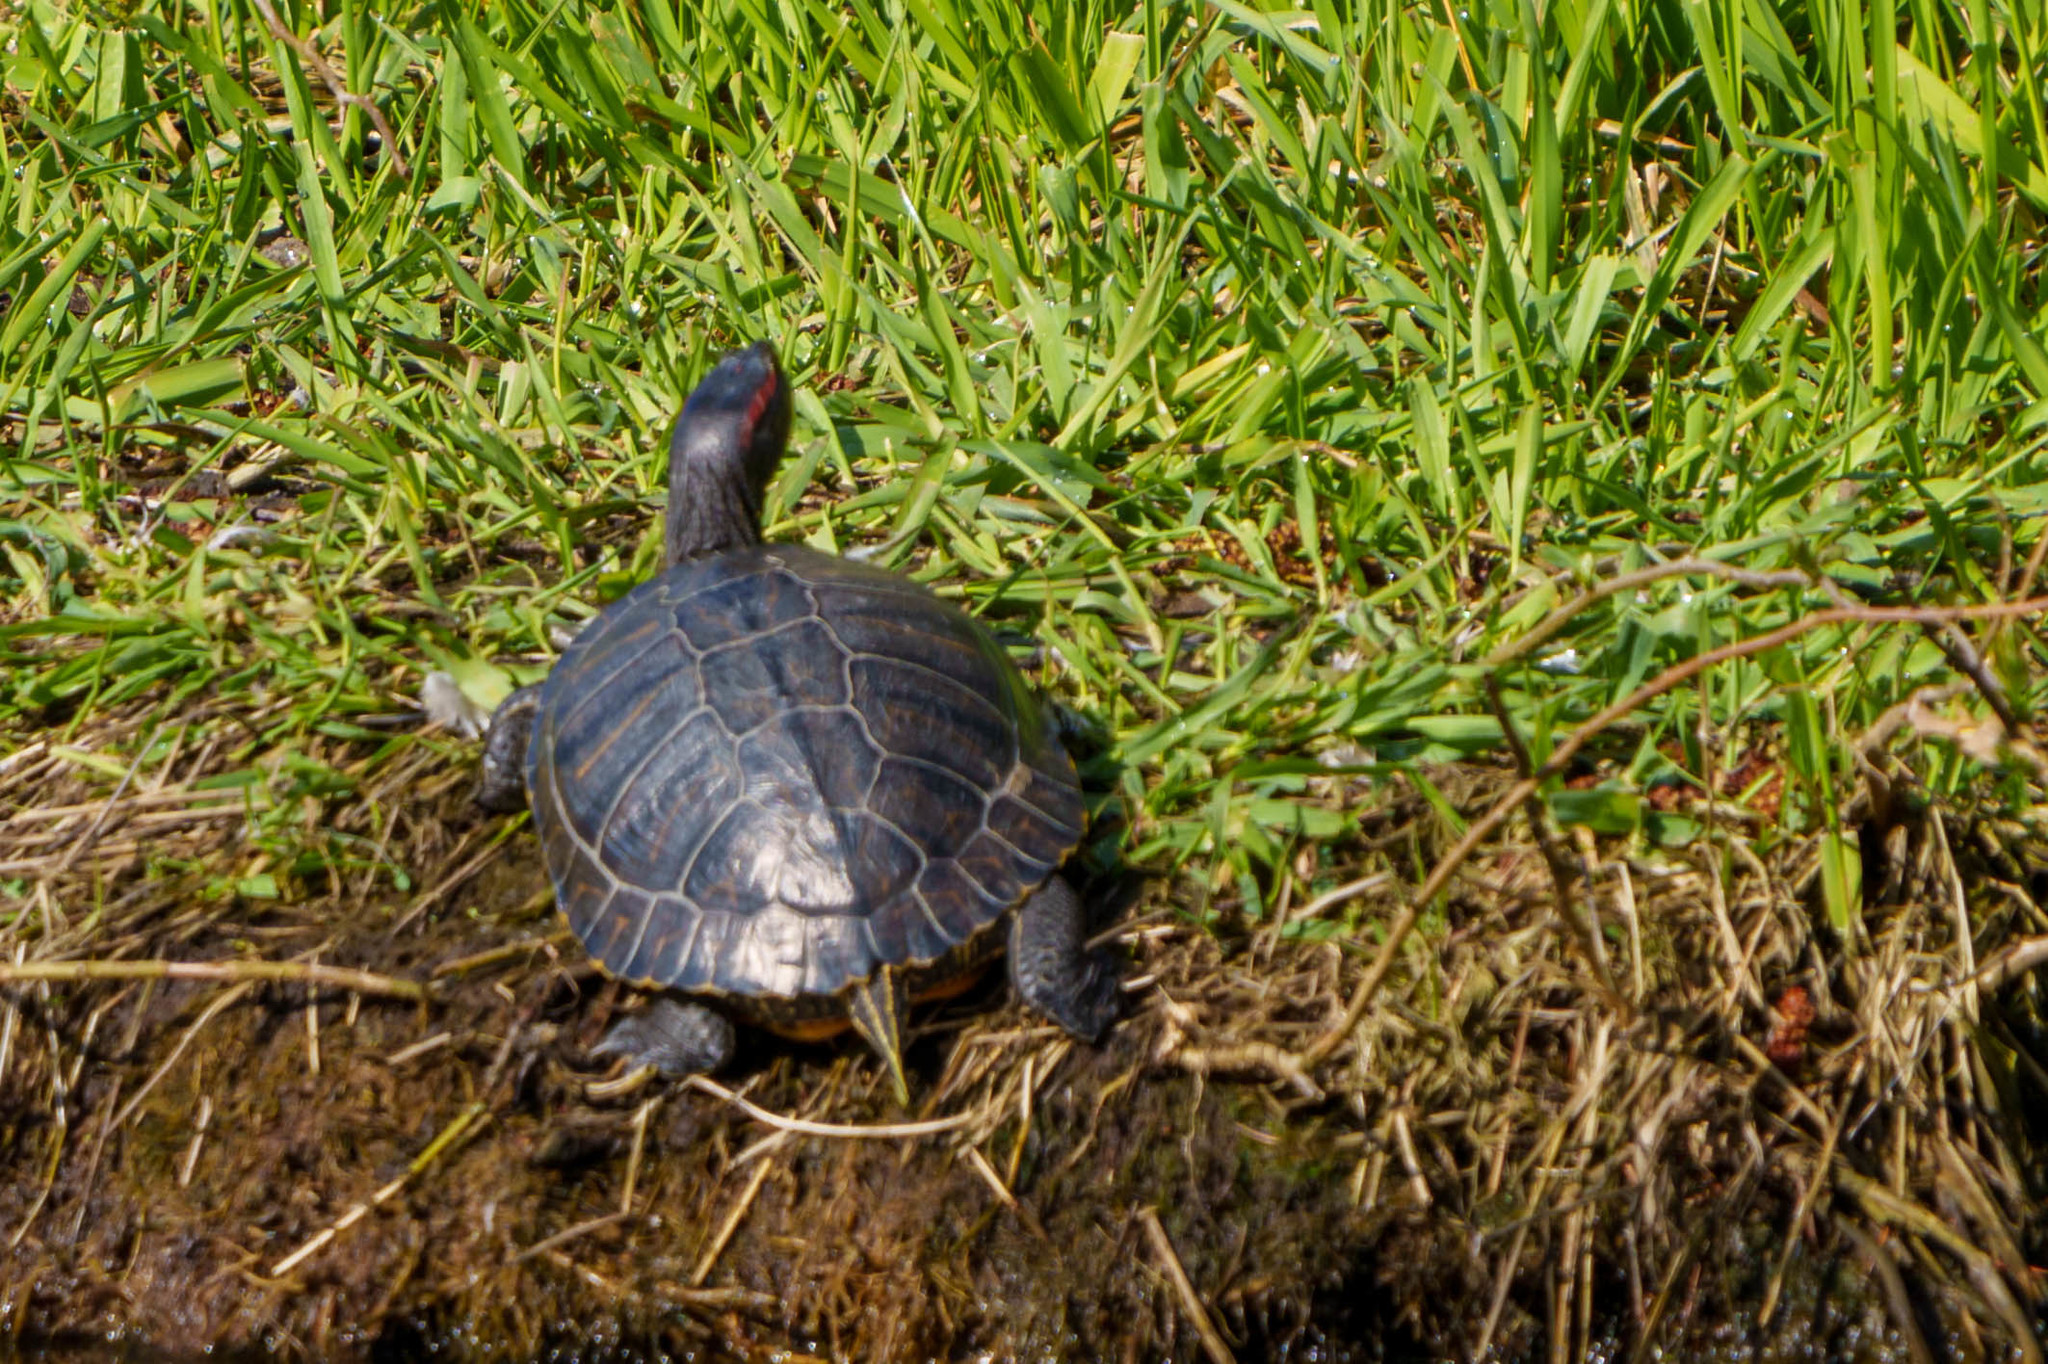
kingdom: Animalia
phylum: Chordata
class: Testudines
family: Emydidae
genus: Trachemys
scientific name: Trachemys scripta
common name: Slider
